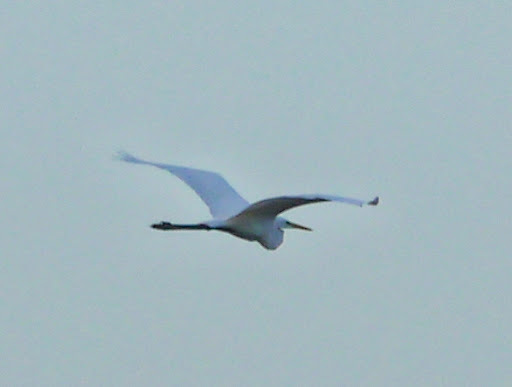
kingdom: Animalia
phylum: Chordata
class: Aves
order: Pelecaniformes
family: Ardeidae
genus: Ardea
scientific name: Ardea alba
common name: Great egret
